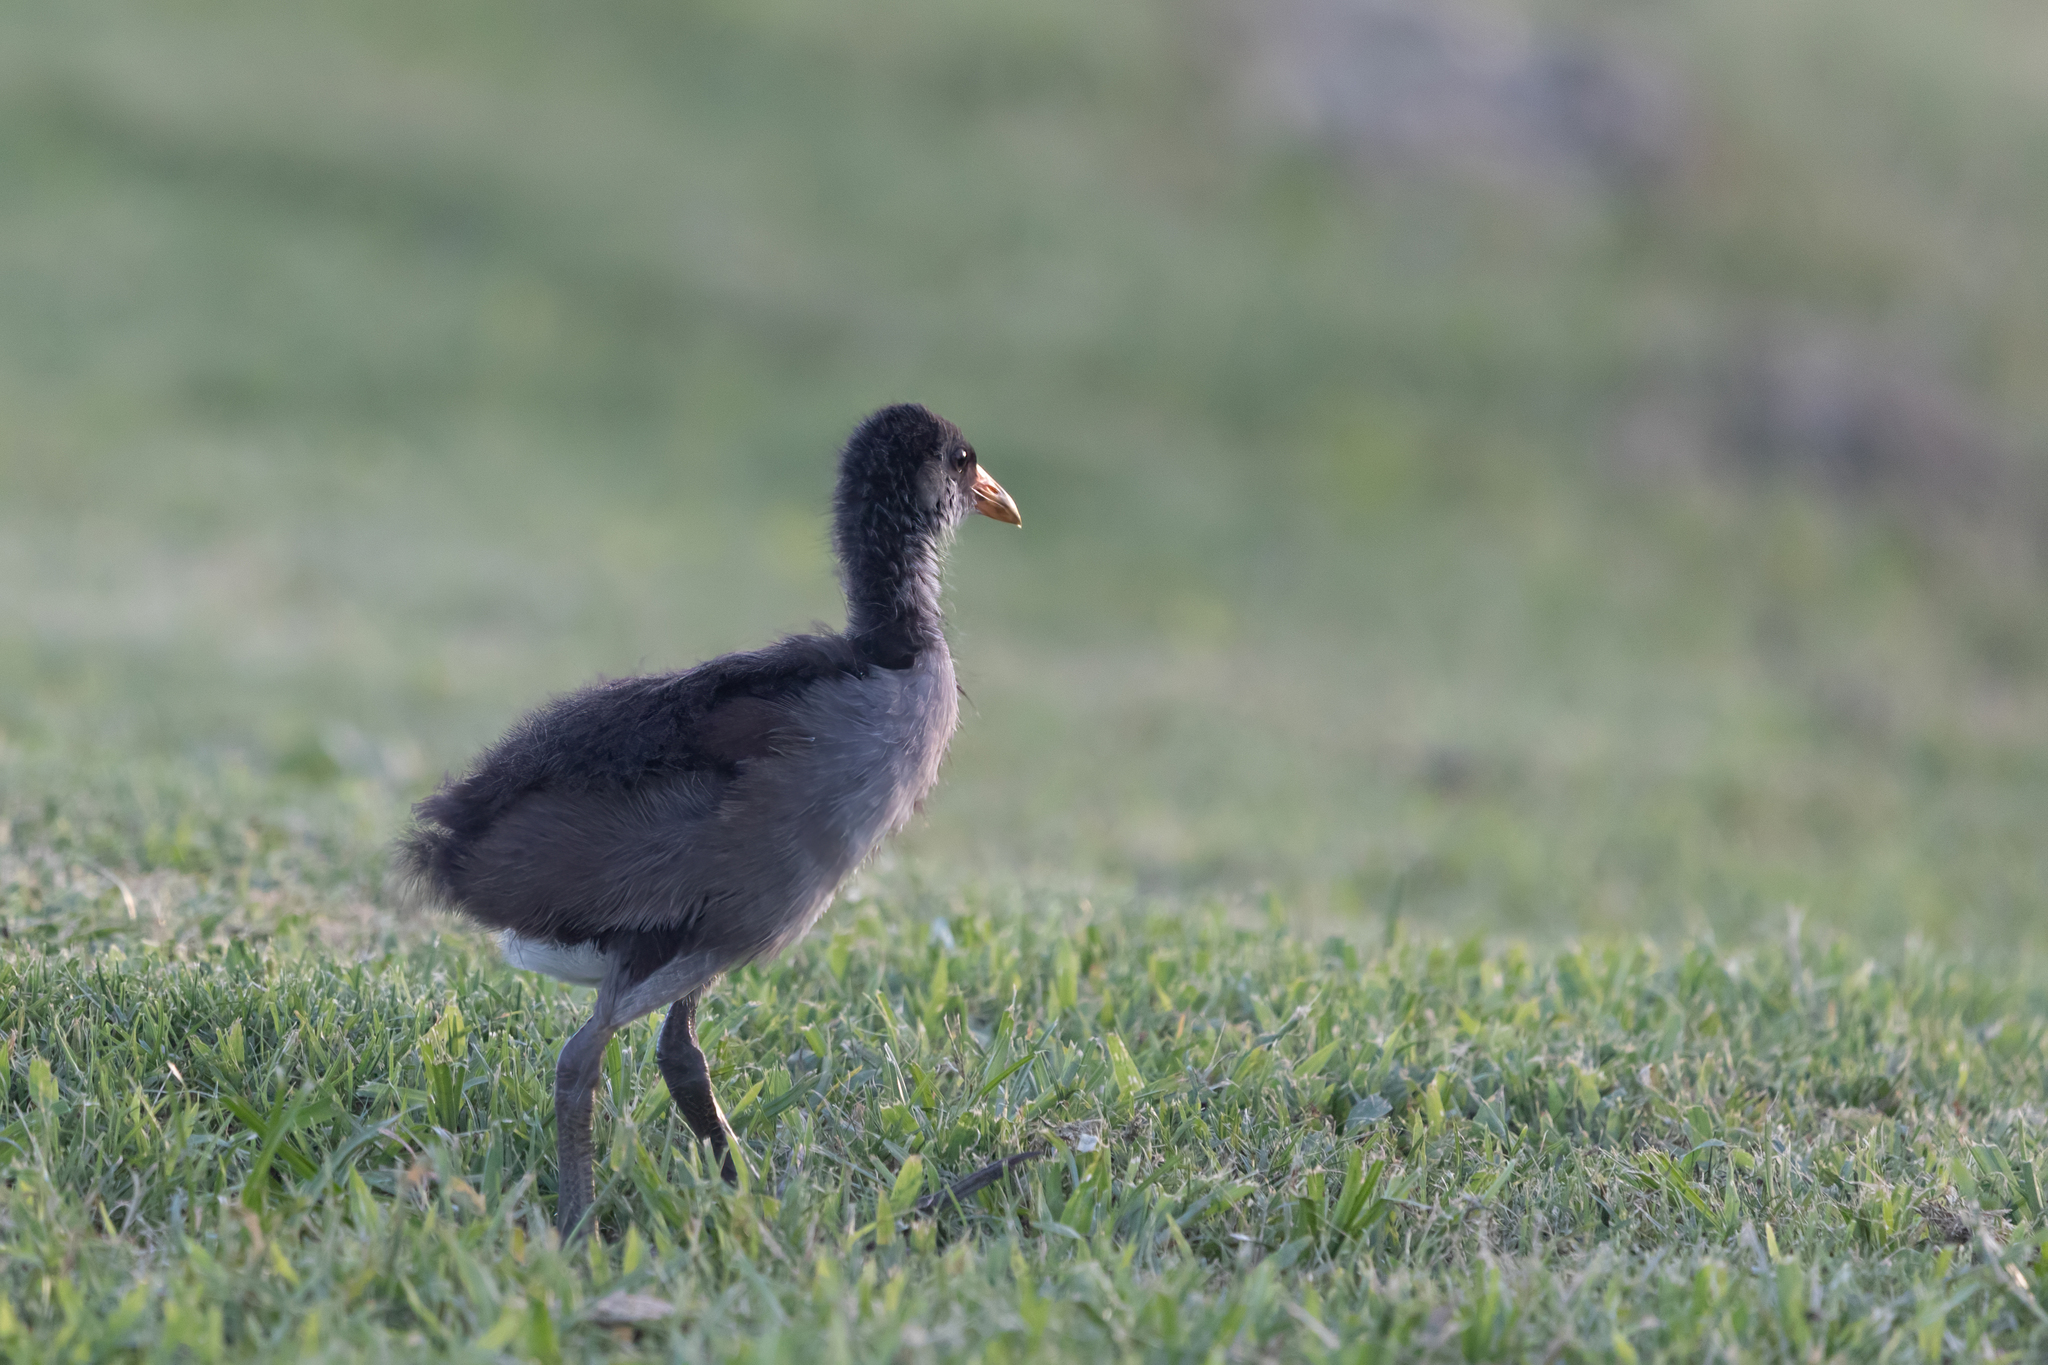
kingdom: Animalia
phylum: Chordata
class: Aves
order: Gruiformes
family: Rallidae
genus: Gallinula
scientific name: Gallinula chloropus
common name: Common moorhen
